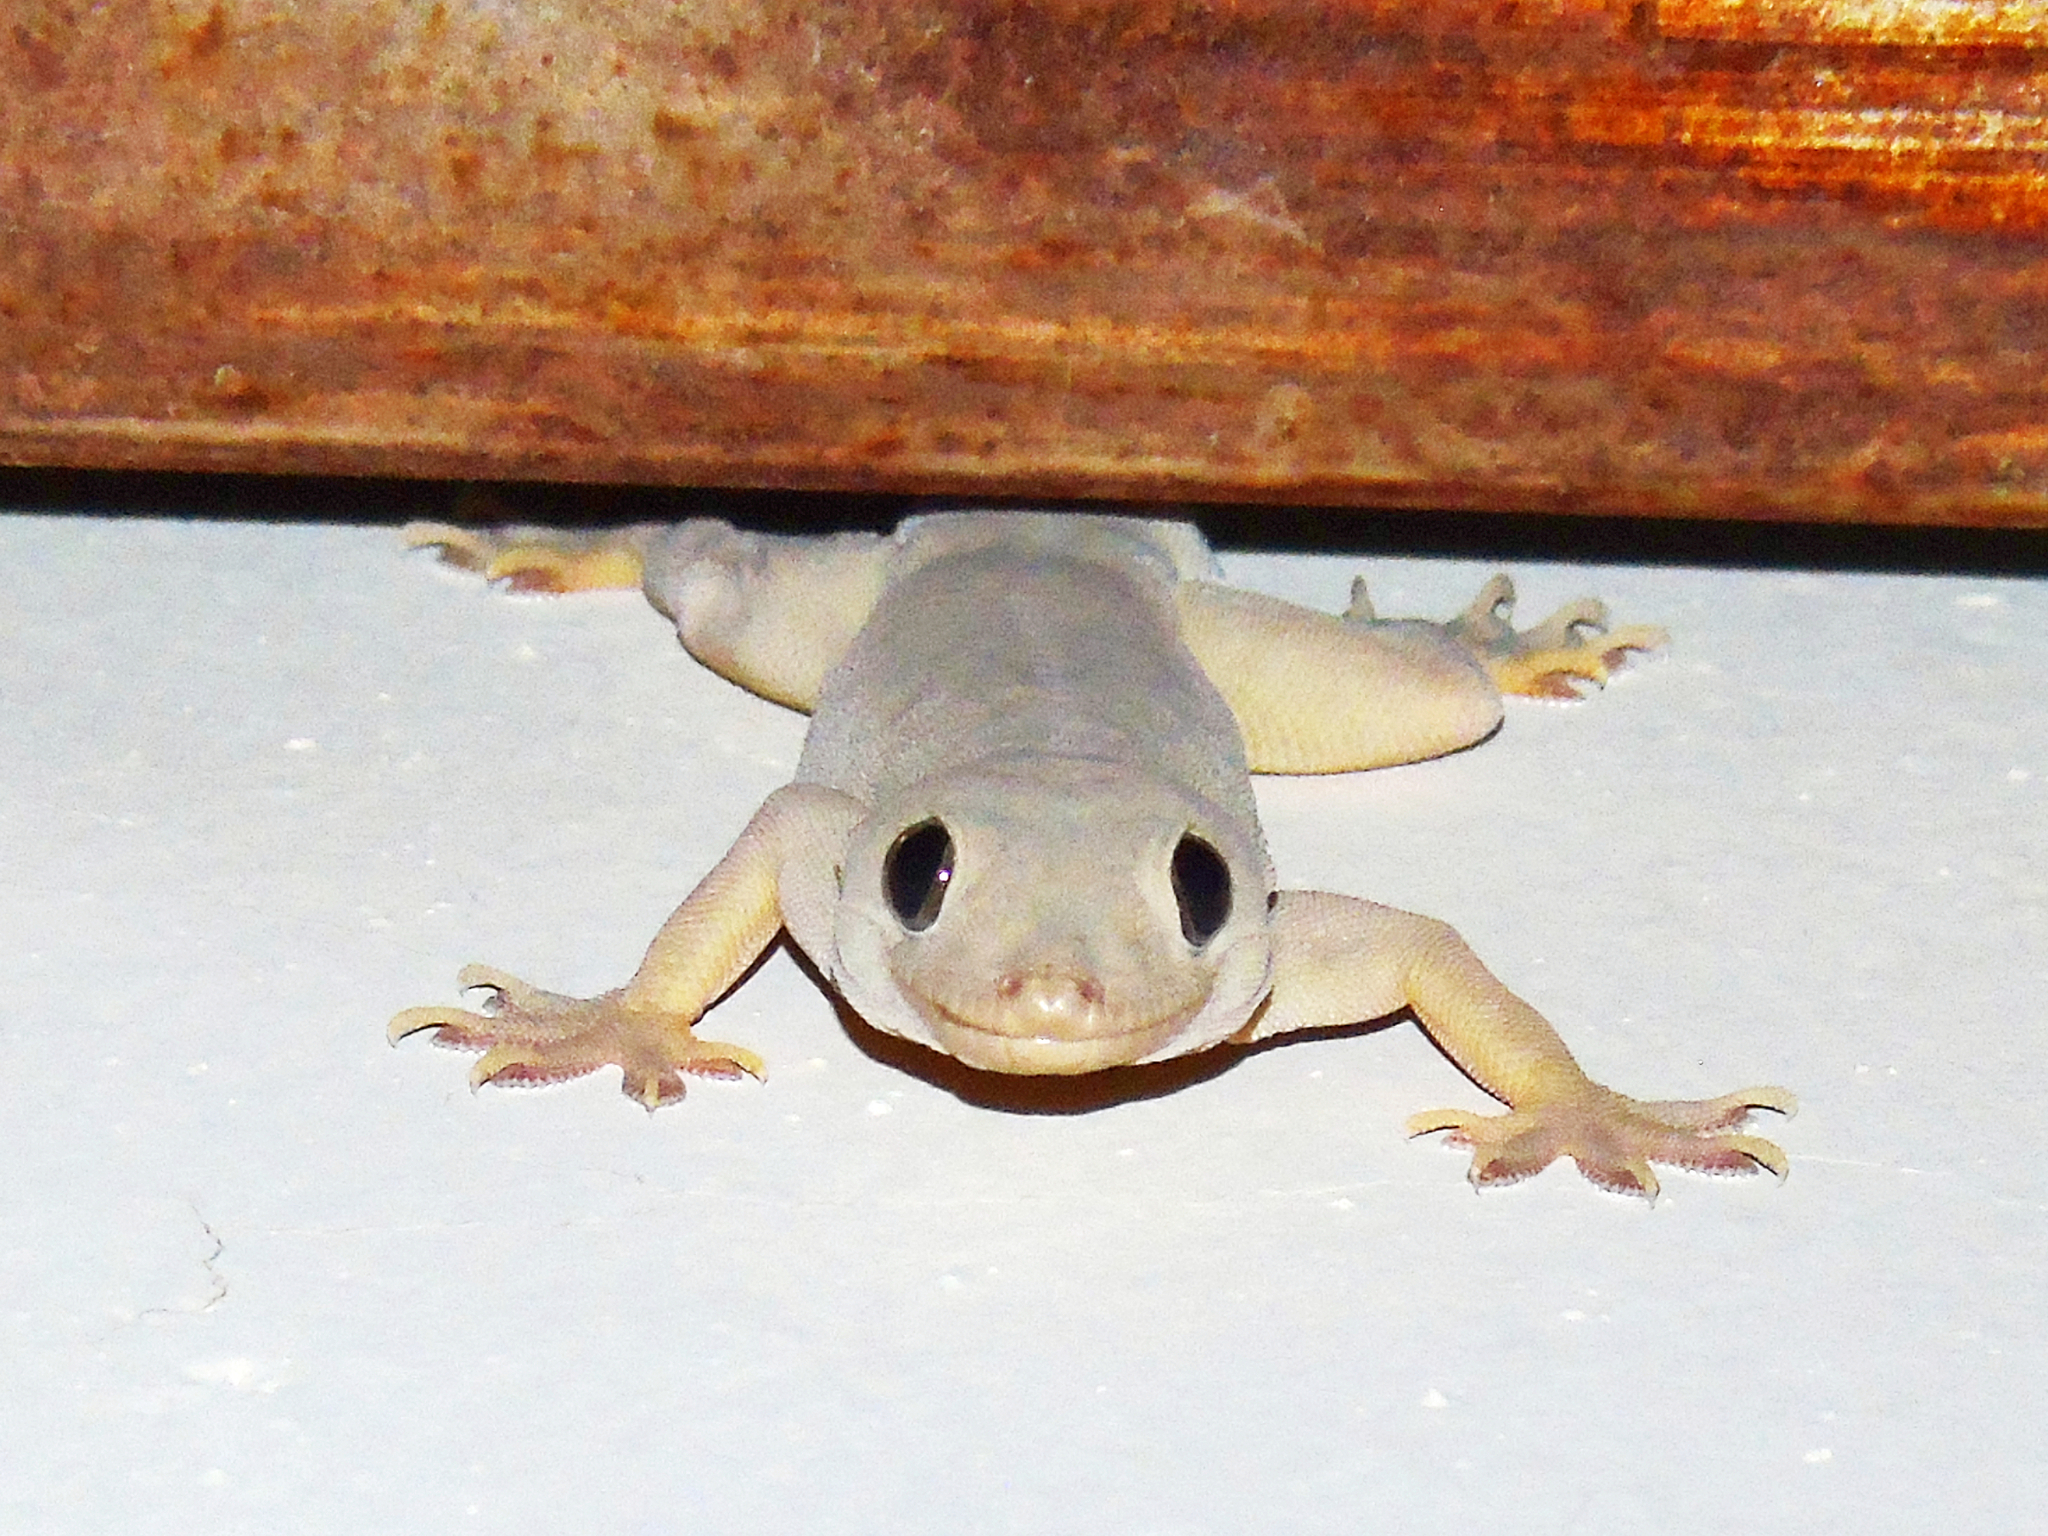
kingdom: Animalia
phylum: Chordata
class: Squamata
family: Gekkonidae
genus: Hemidactylus
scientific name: Hemidactylus flaviviridis
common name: Northern house gecko
